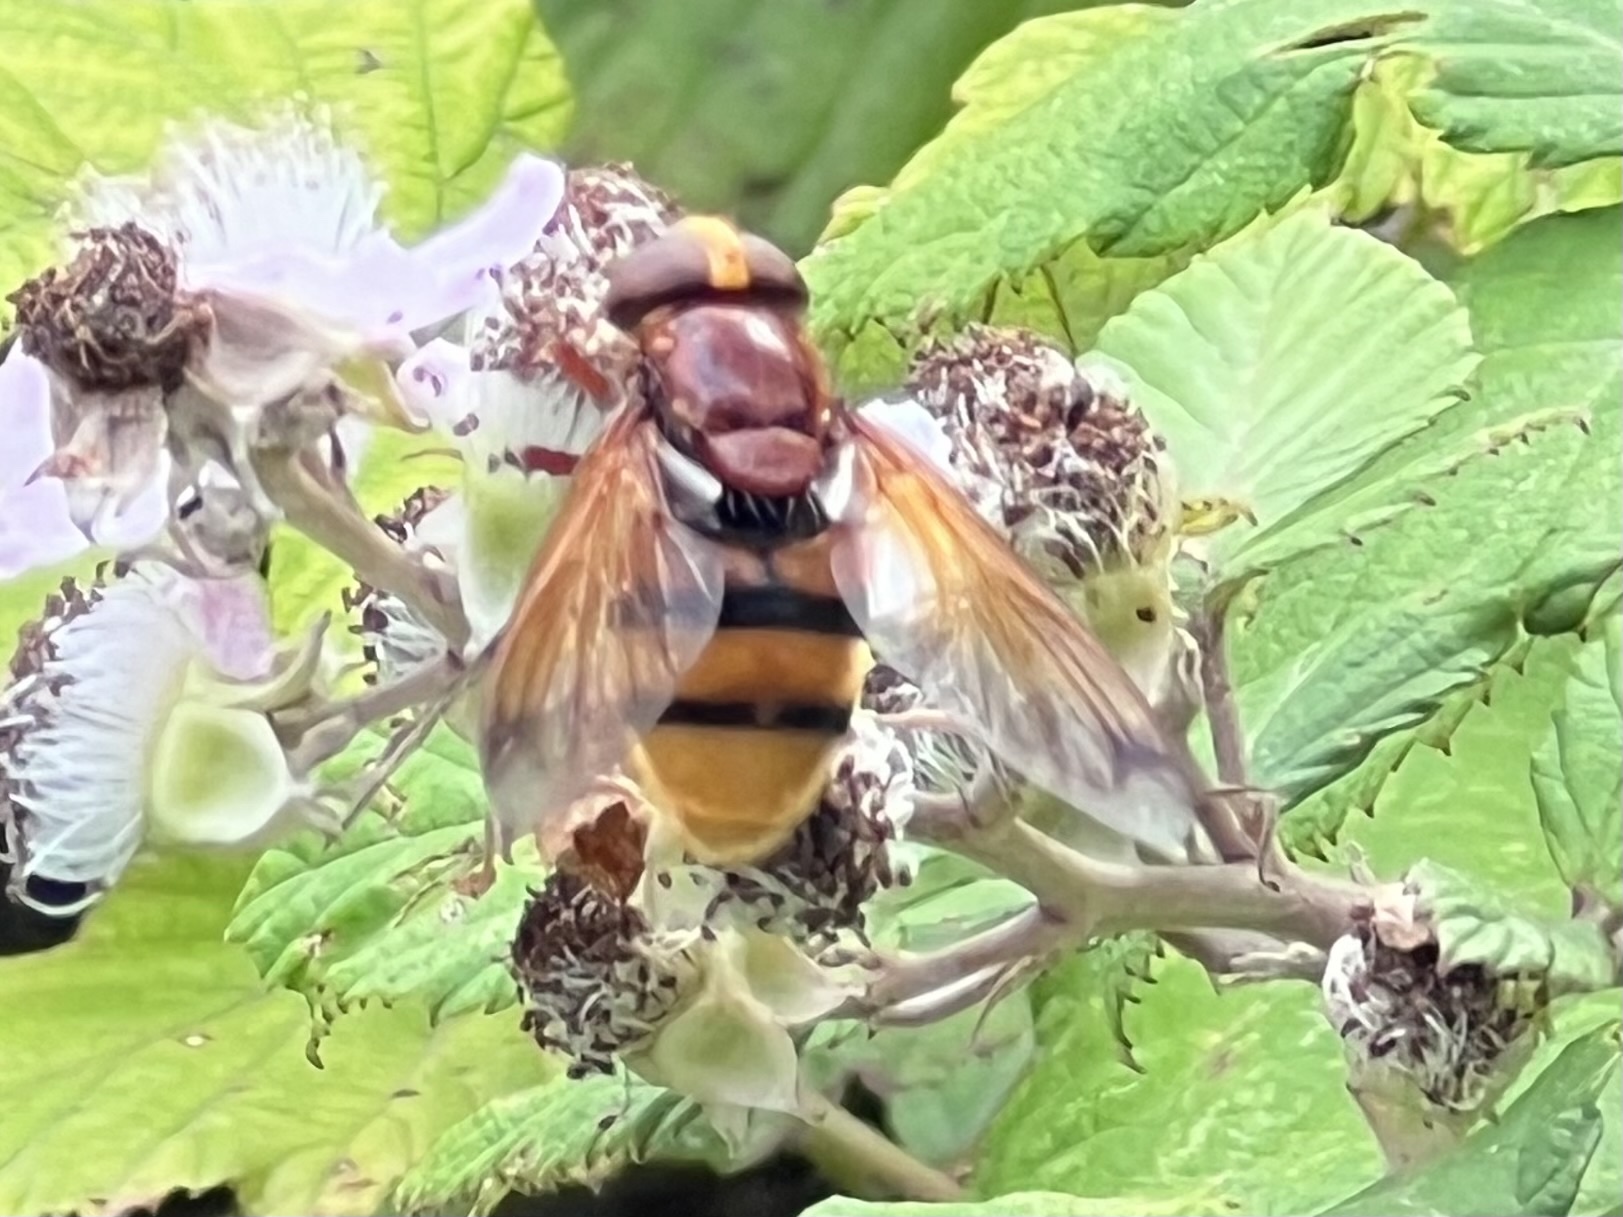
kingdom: Animalia
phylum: Arthropoda
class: Insecta
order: Diptera
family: Syrphidae
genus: Volucella
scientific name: Volucella zonaria
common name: Hornet hoverfly
